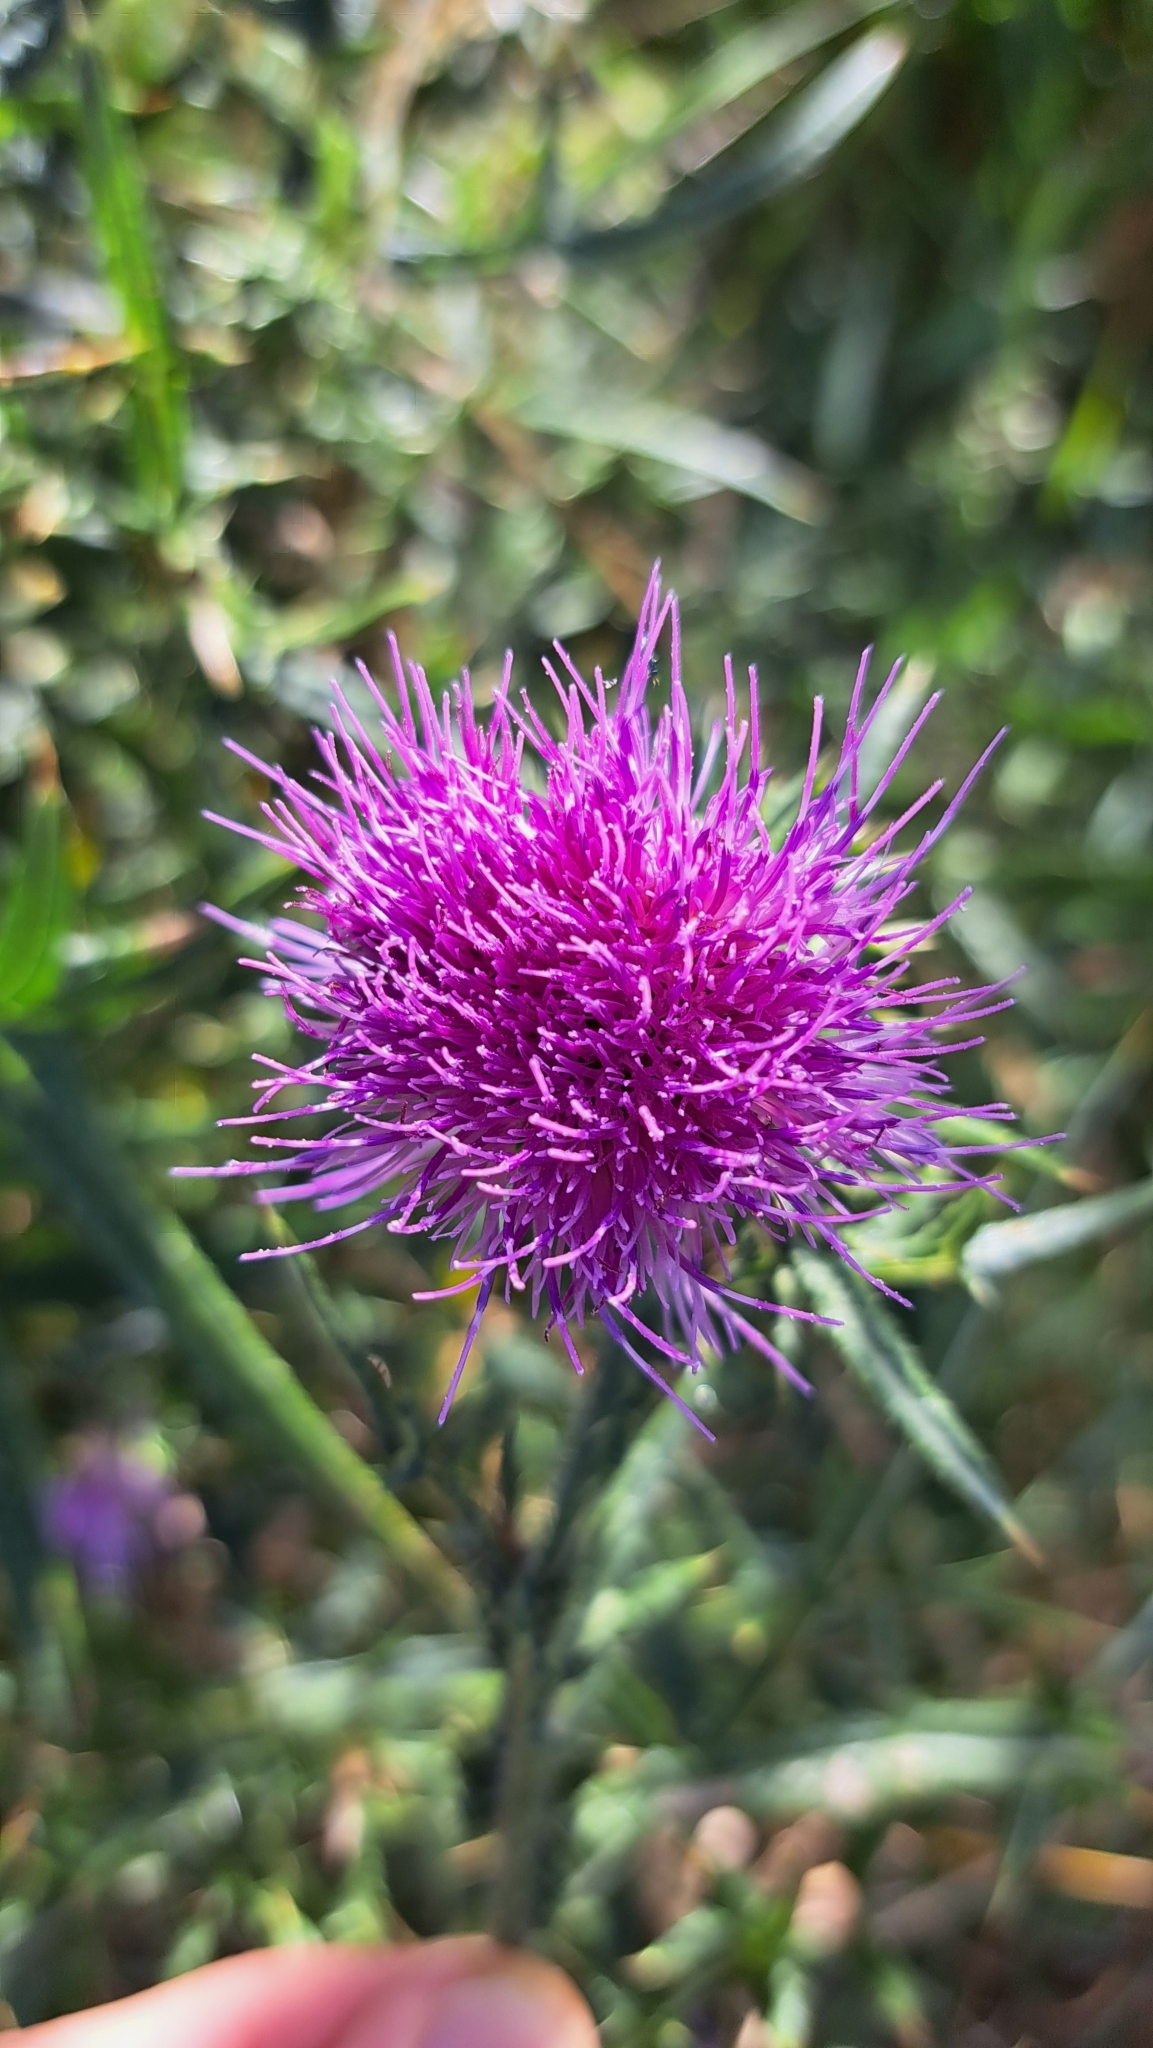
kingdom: Plantae
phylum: Tracheophyta
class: Magnoliopsida
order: Asterales
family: Asteraceae
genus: Cirsium
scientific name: Cirsium vulgare
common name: Bull thistle
